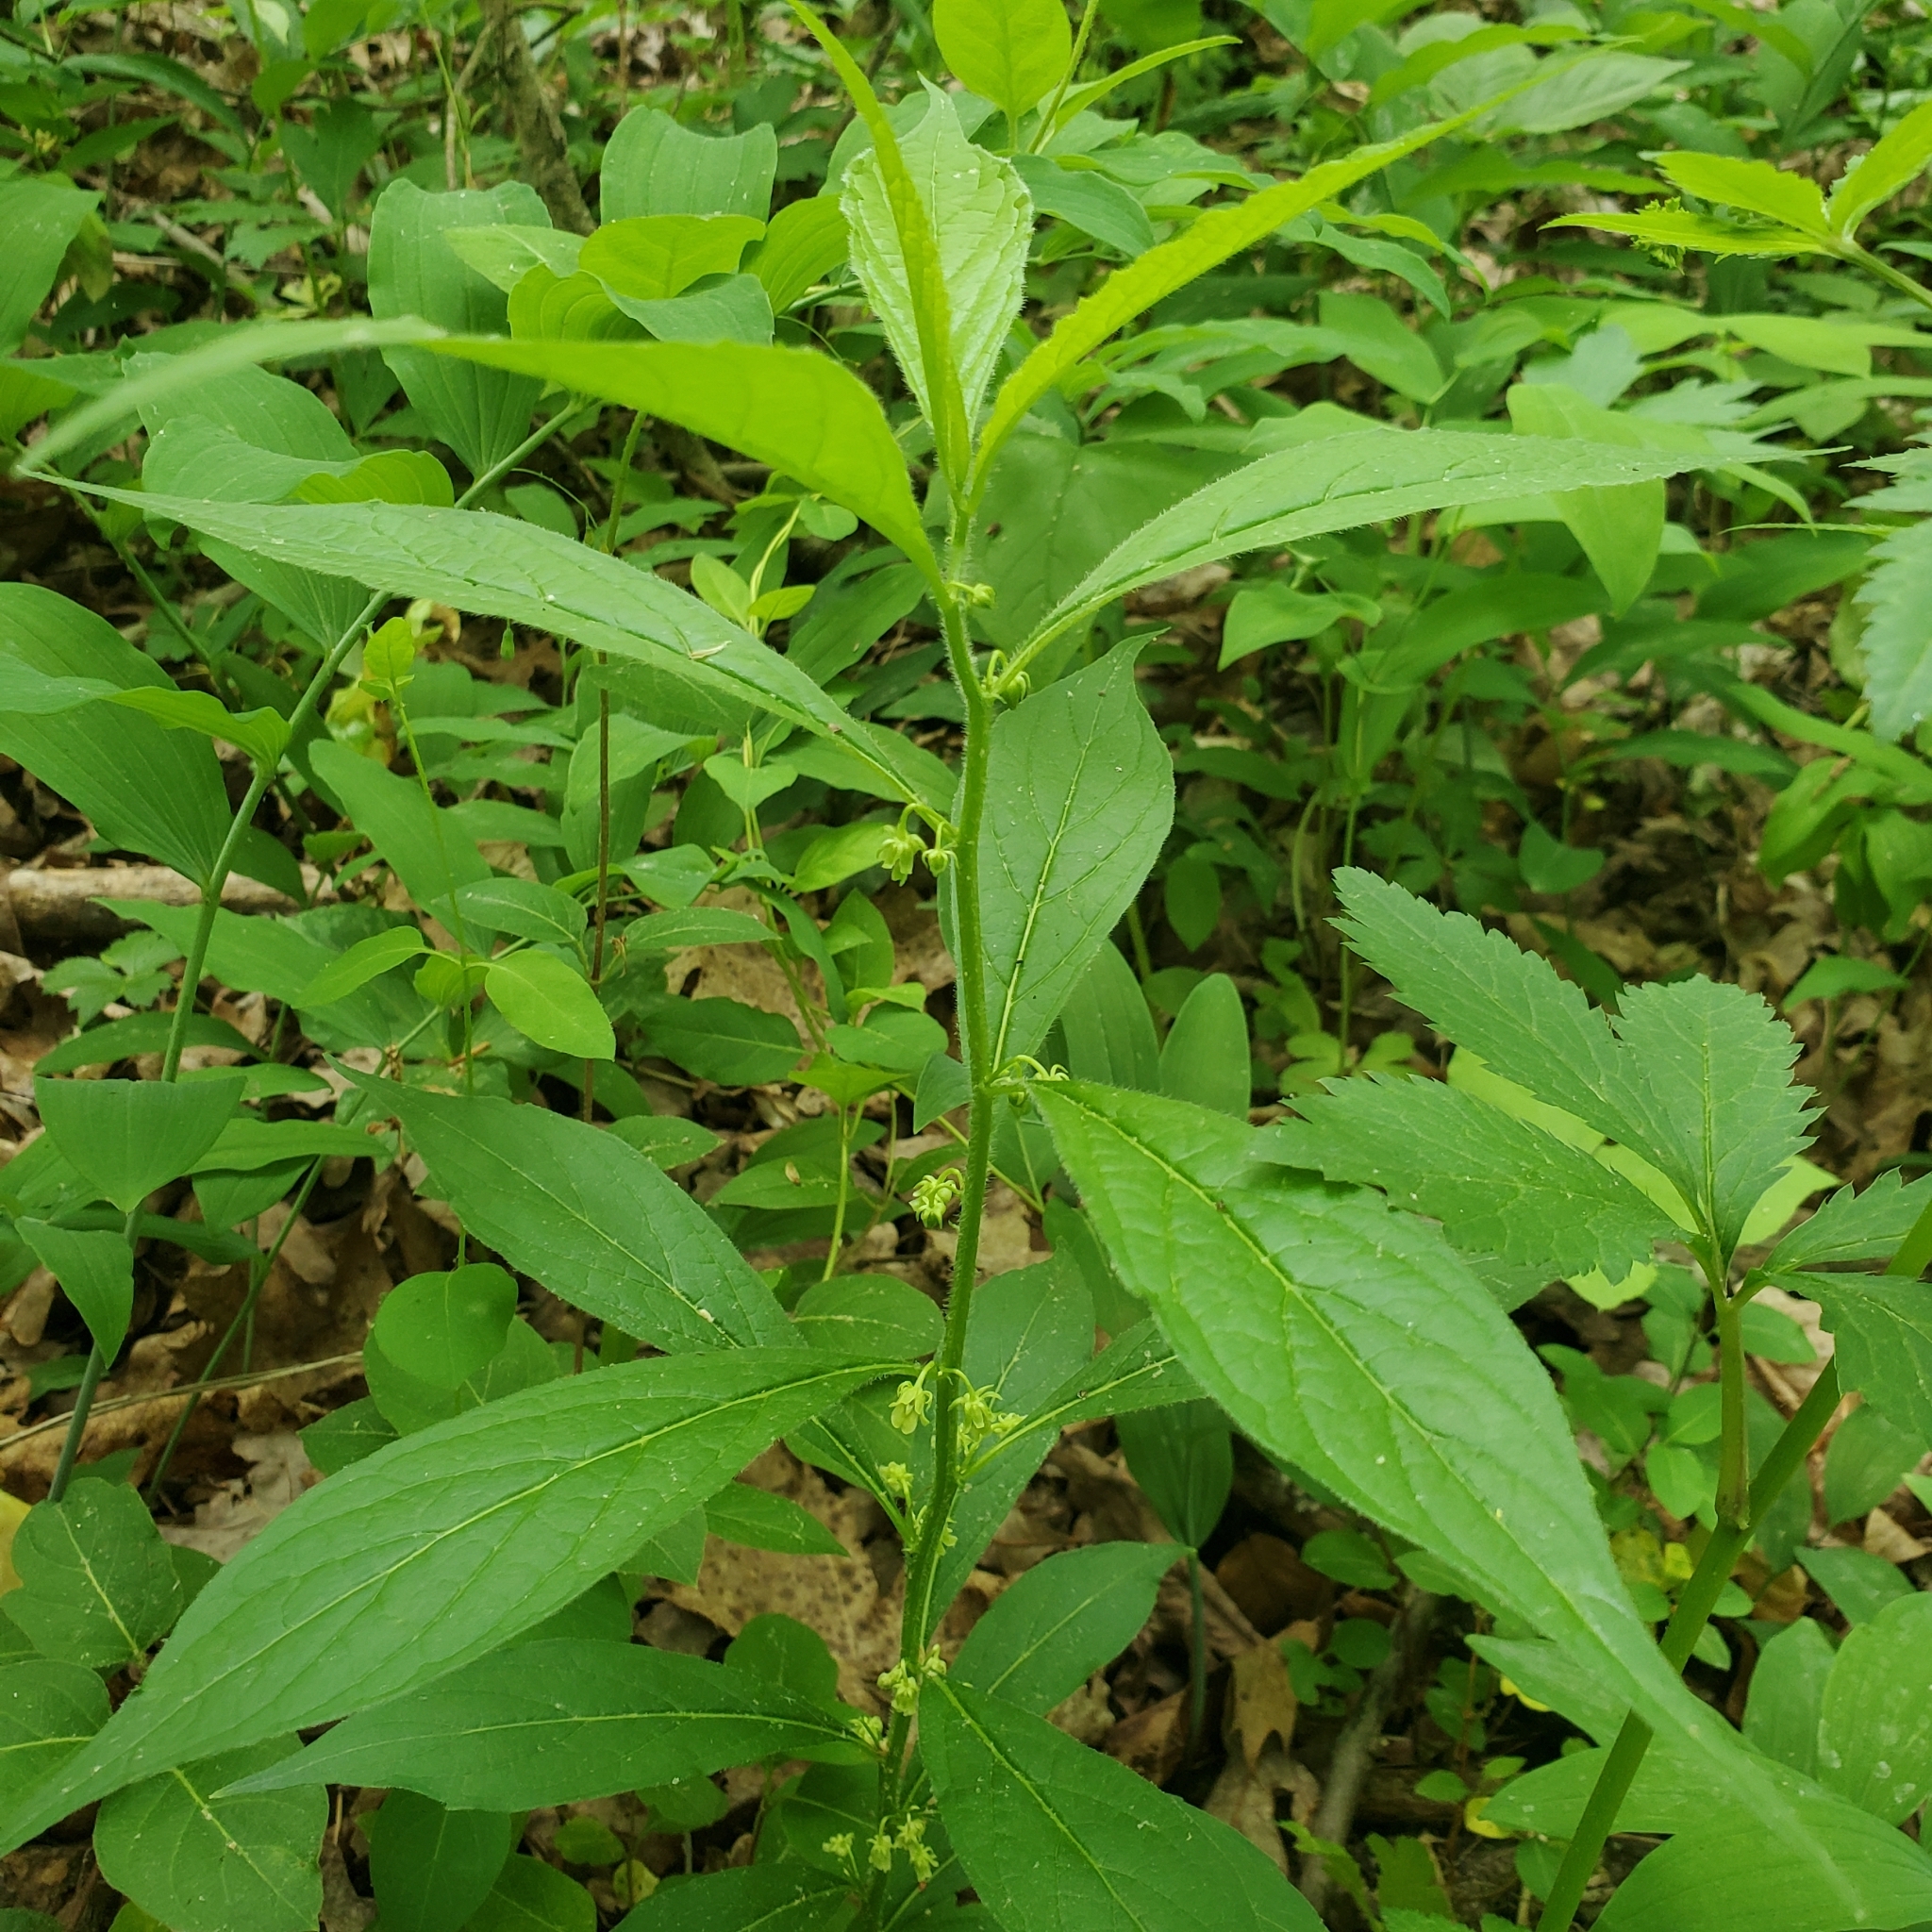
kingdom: Plantae
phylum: Tracheophyta
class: Magnoliopsida
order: Malpighiales
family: Violaceae
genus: Cubelium
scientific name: Cubelium concolor
